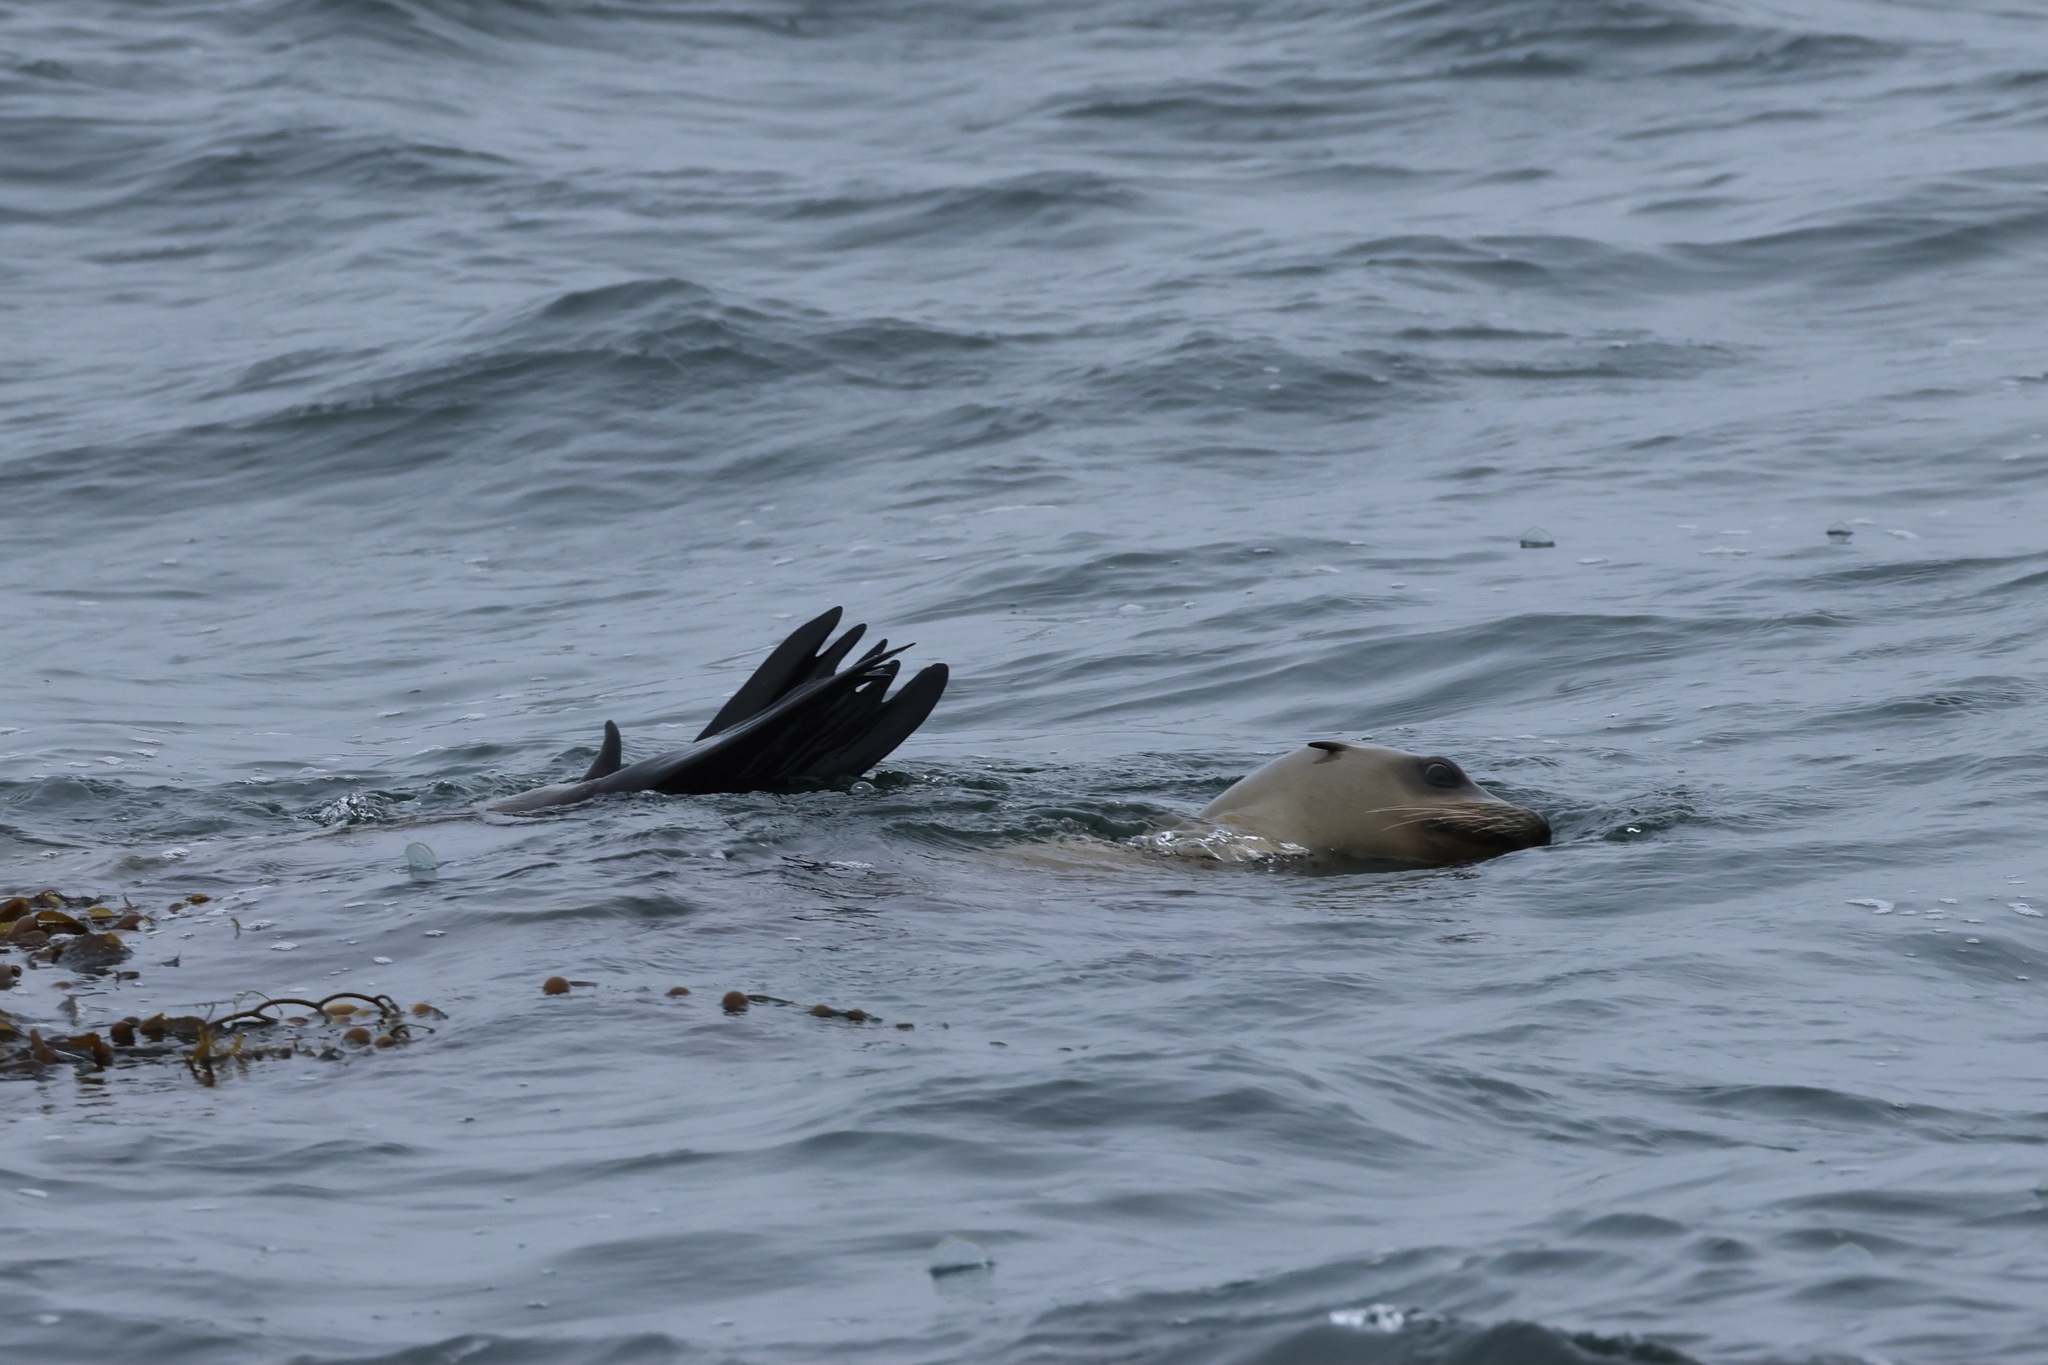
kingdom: Animalia
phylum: Chordata
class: Mammalia
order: Carnivora
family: Otariidae
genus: Zalophus
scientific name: Zalophus californianus
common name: California sea lion
